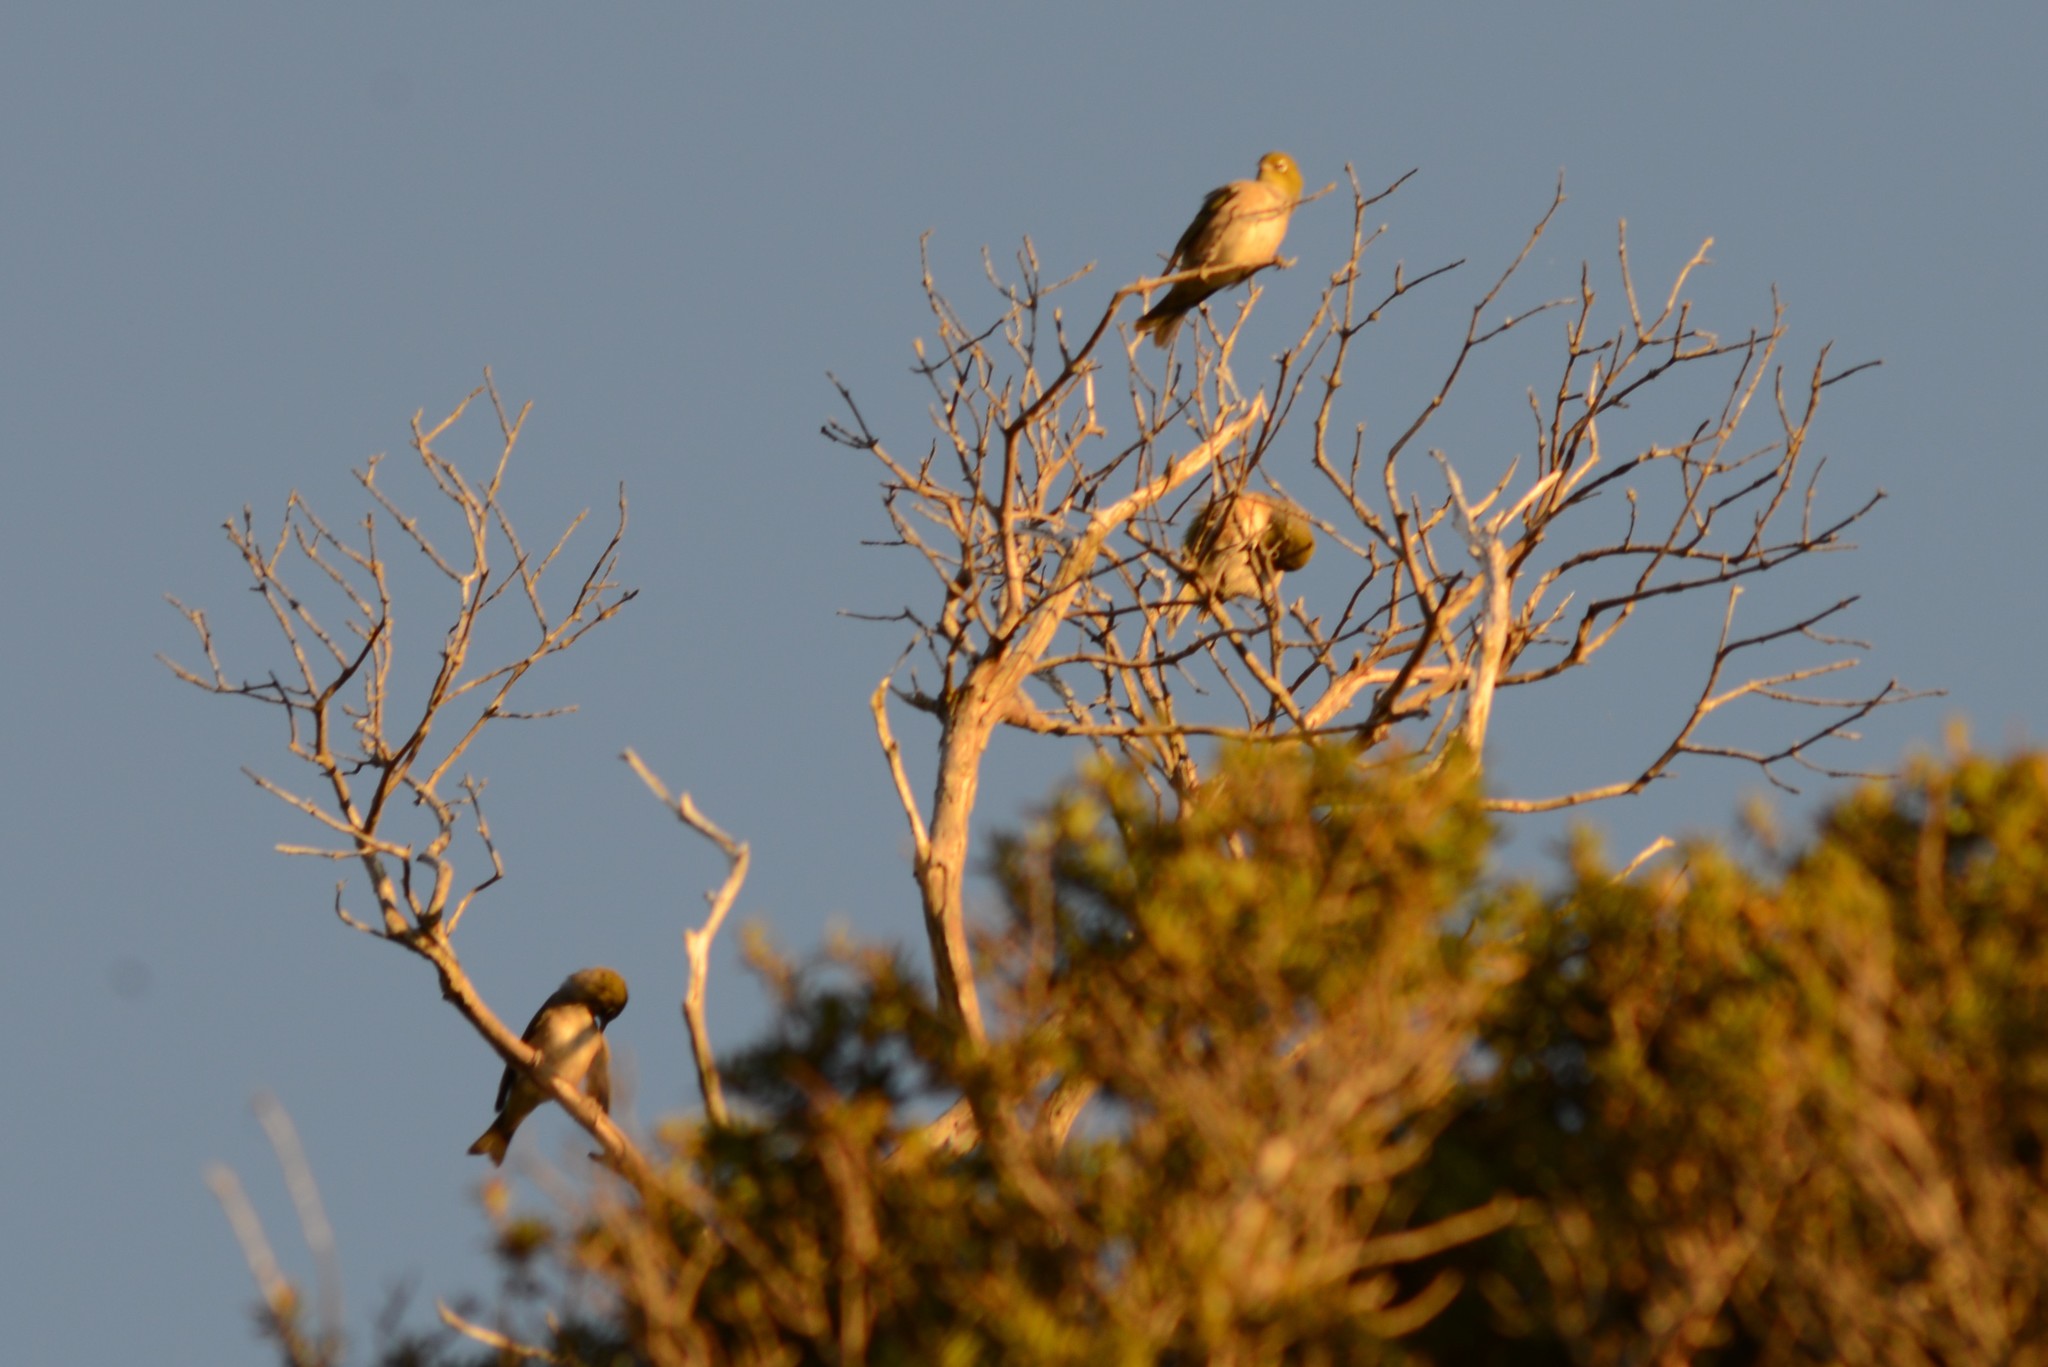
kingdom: Animalia
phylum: Chordata
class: Aves
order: Passeriformes
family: Zosteropidae
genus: Zosterops
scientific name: Zosterops lateralis
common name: Silvereye
